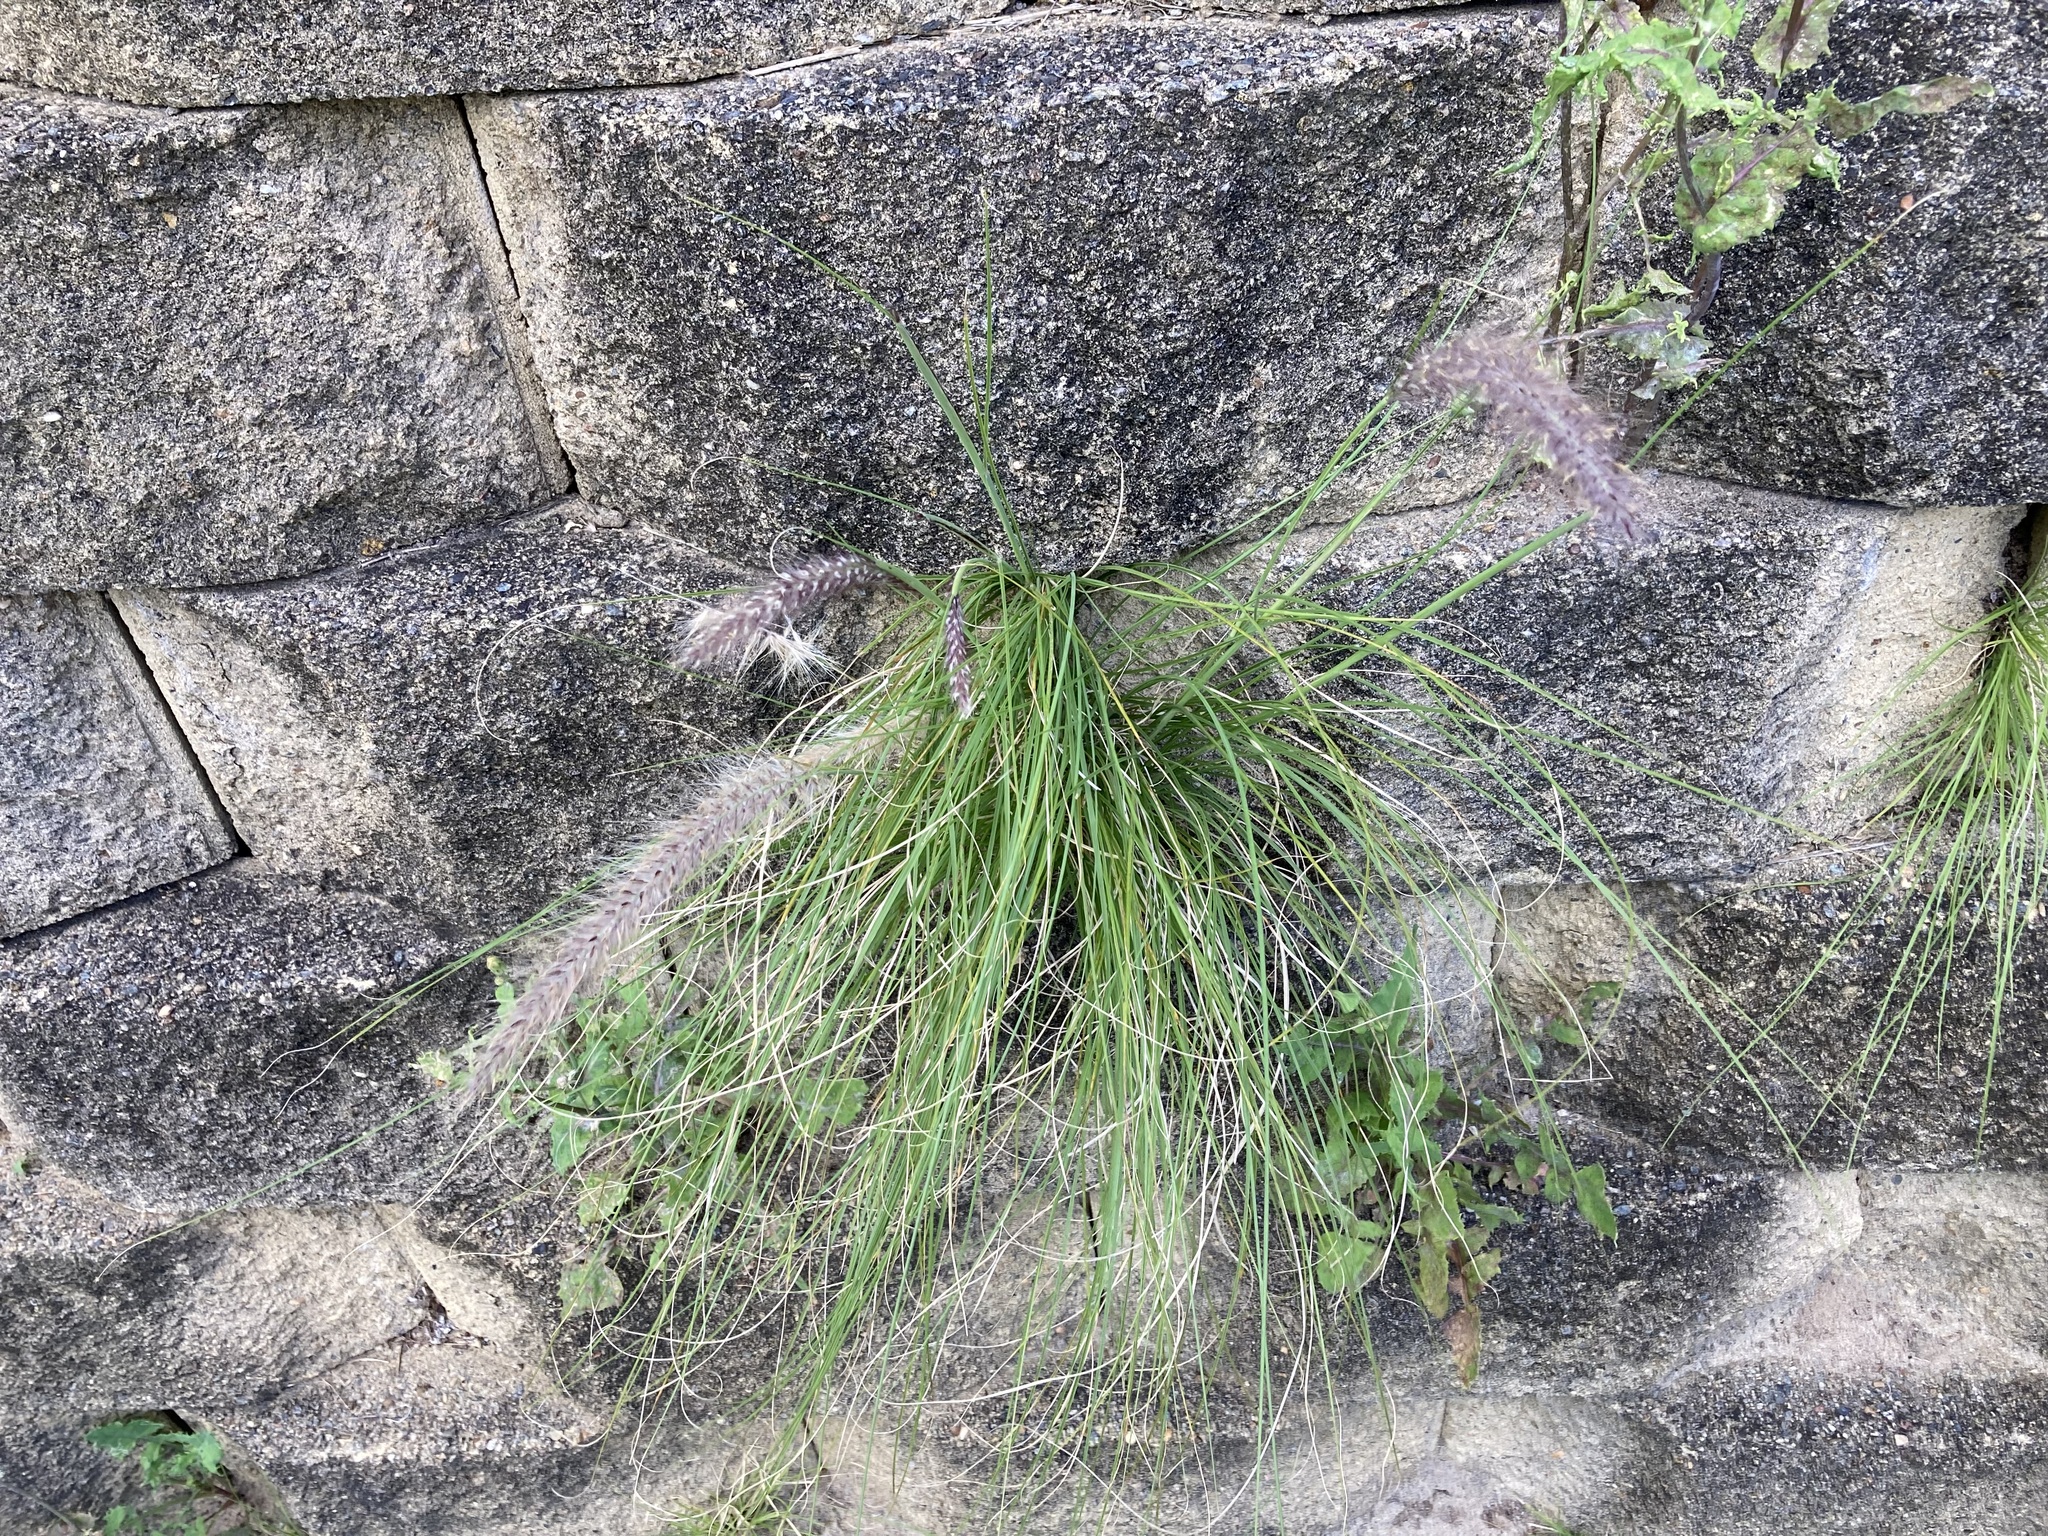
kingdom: Plantae
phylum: Tracheophyta
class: Liliopsida
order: Poales
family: Poaceae
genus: Cenchrus
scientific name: Cenchrus setaceus
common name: Crimson fountaingrass
